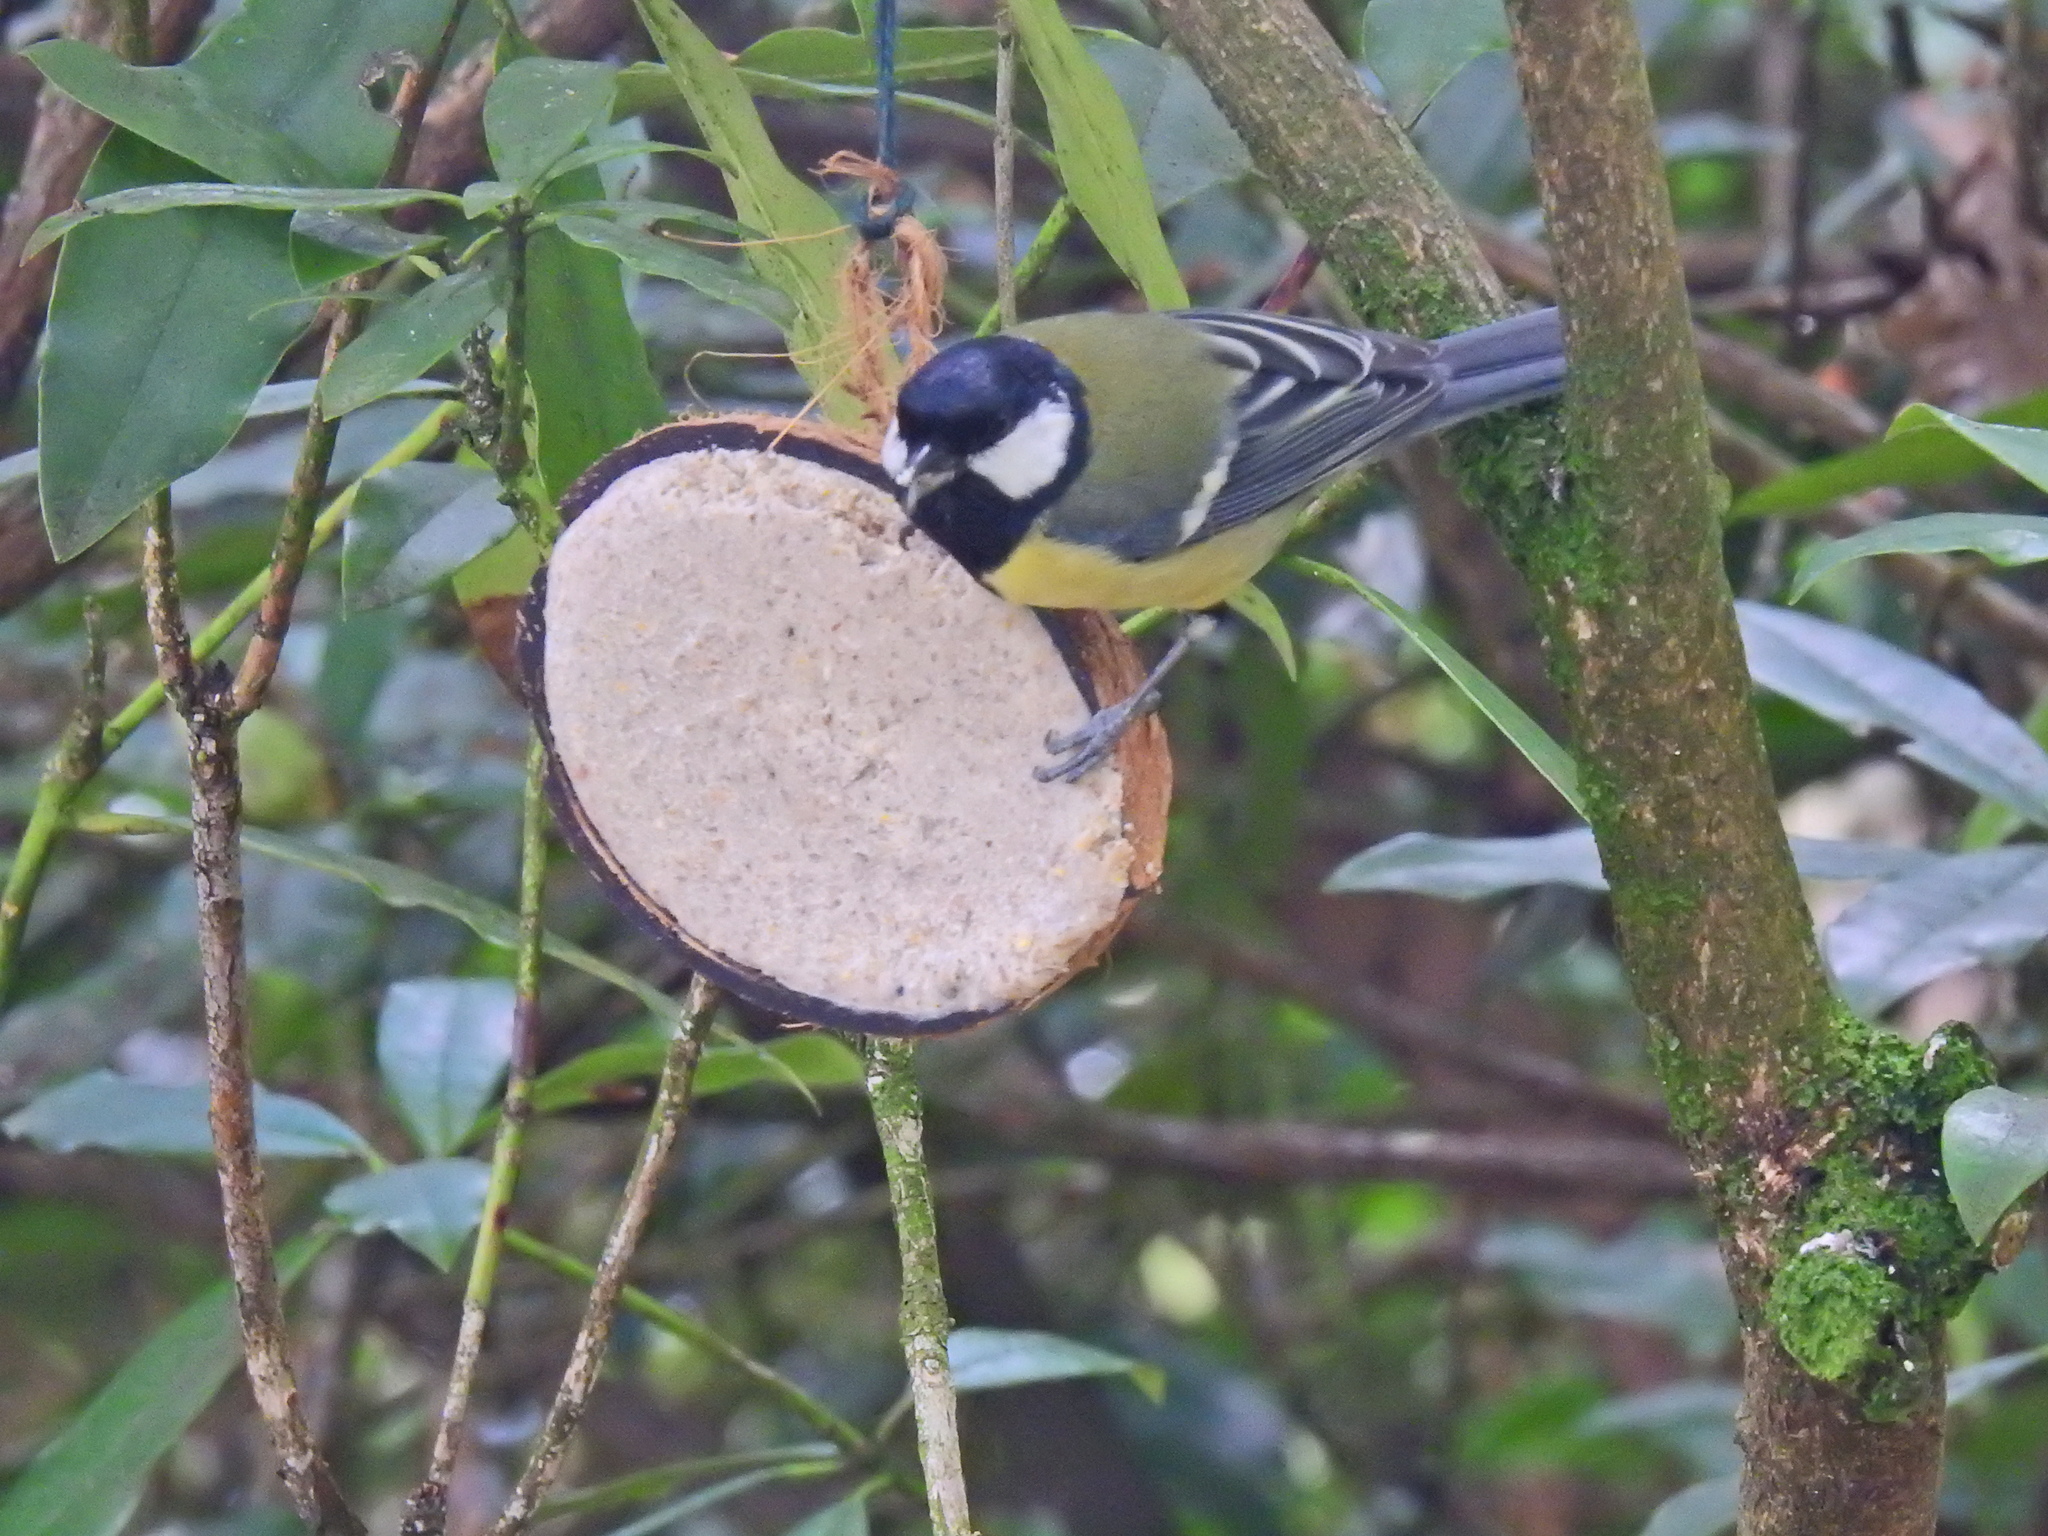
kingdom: Animalia
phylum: Chordata
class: Aves
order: Passeriformes
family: Paridae
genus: Parus
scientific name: Parus major
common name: Great tit
